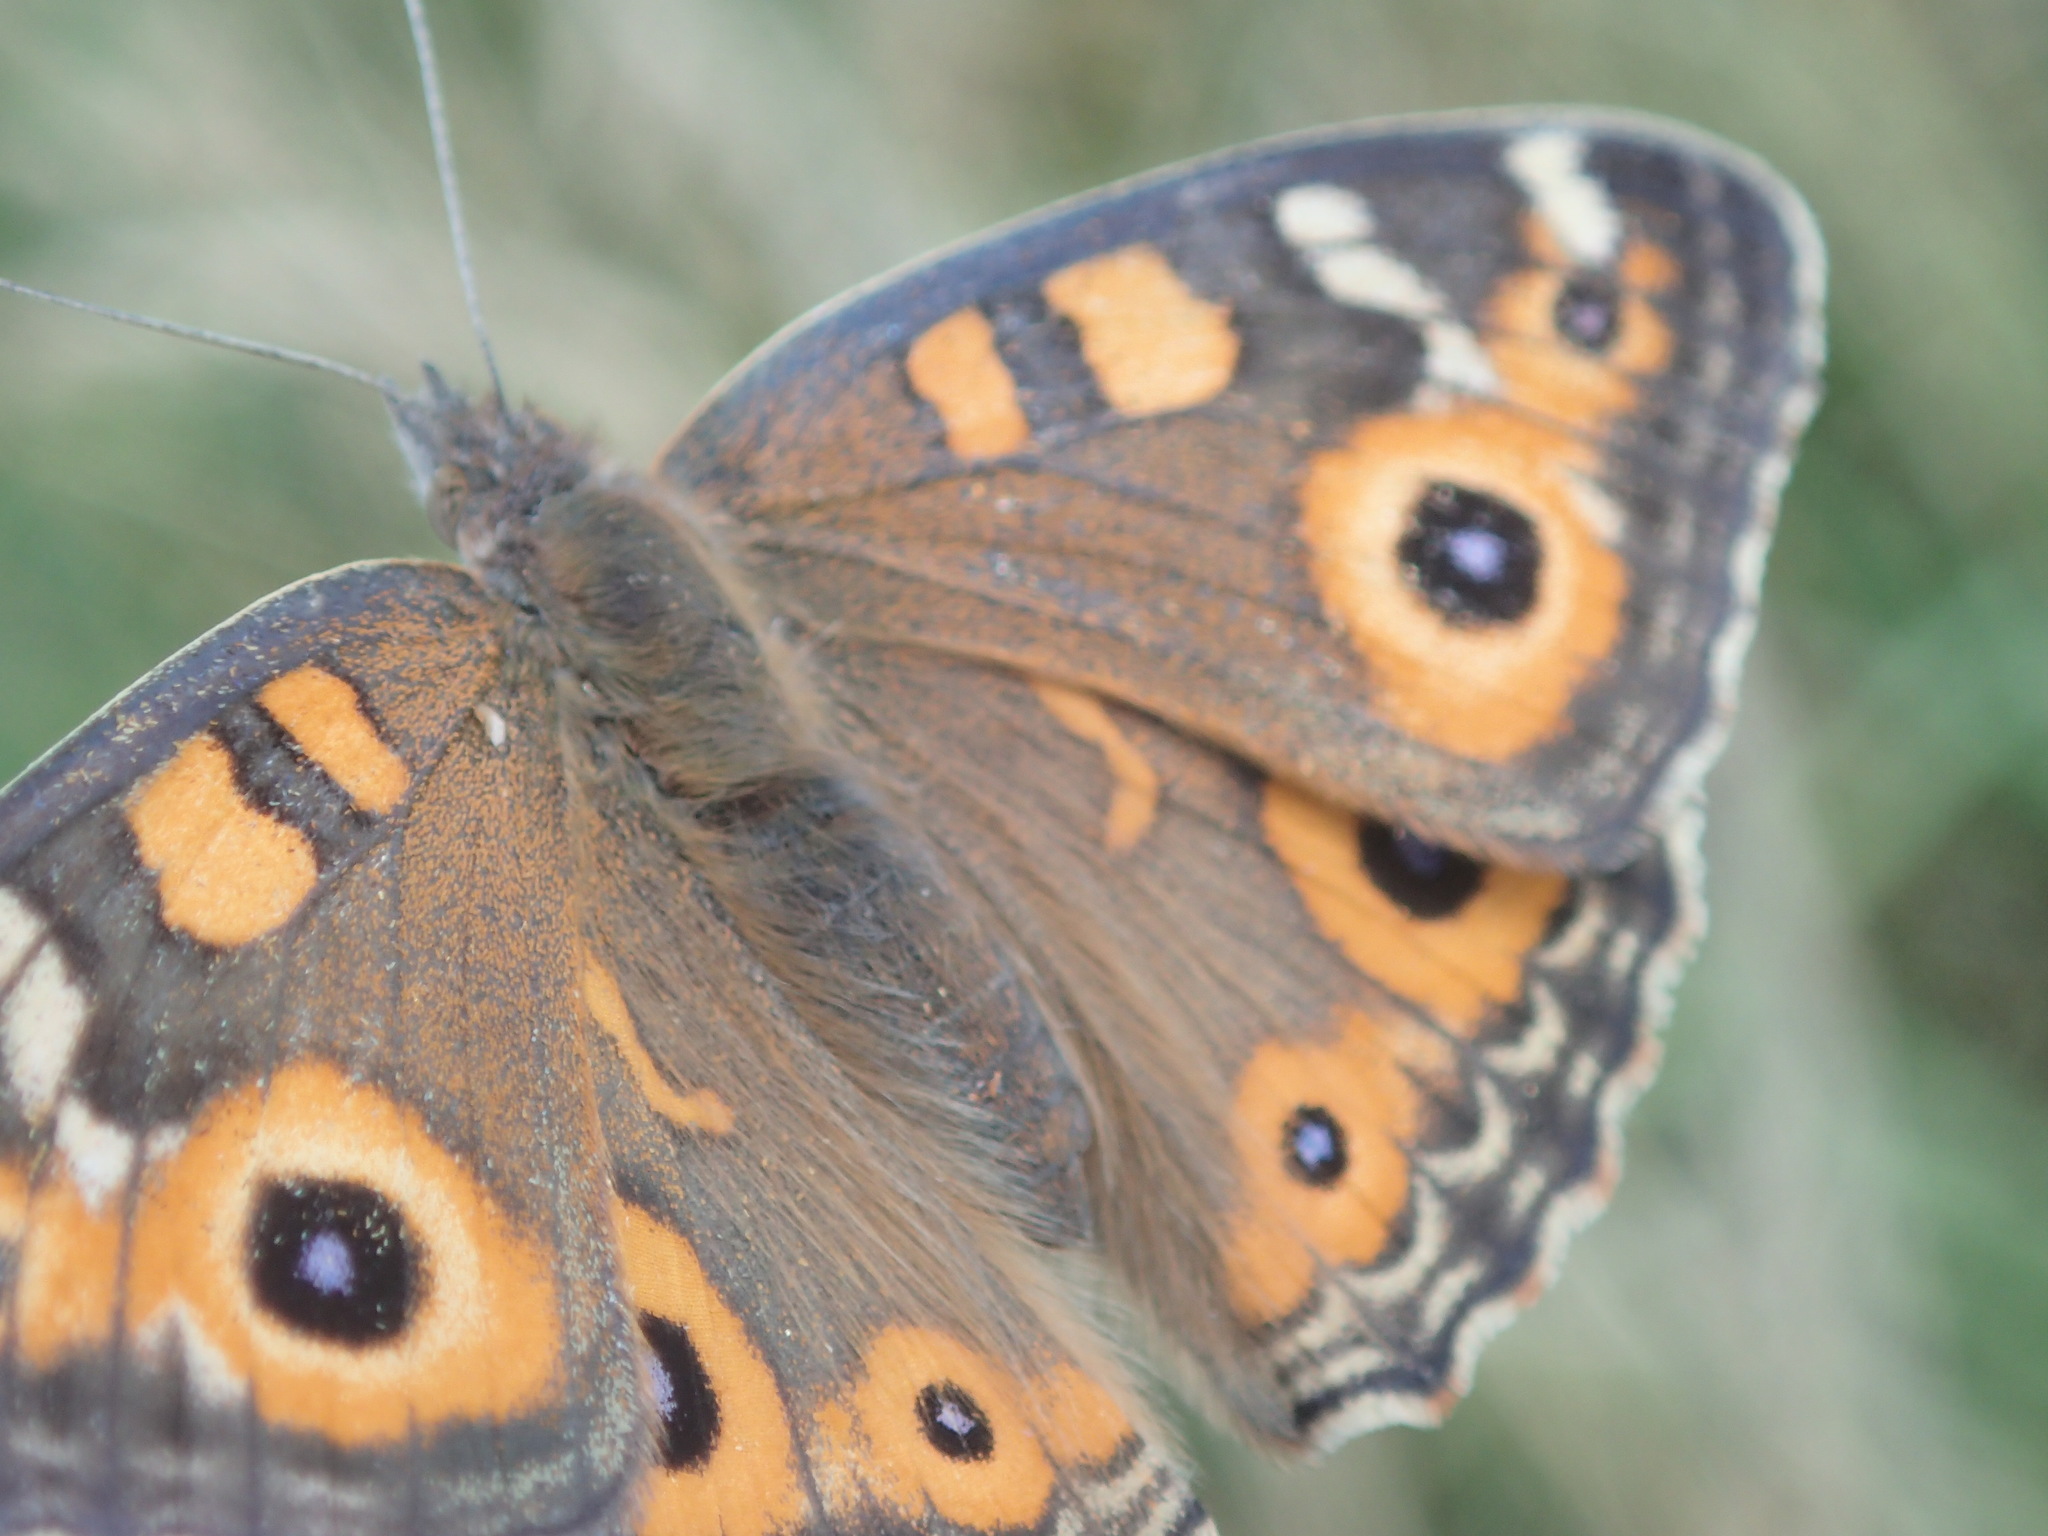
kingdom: Animalia
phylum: Arthropoda
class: Insecta
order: Lepidoptera
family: Nymphalidae
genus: Junonia
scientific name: Junonia villida
